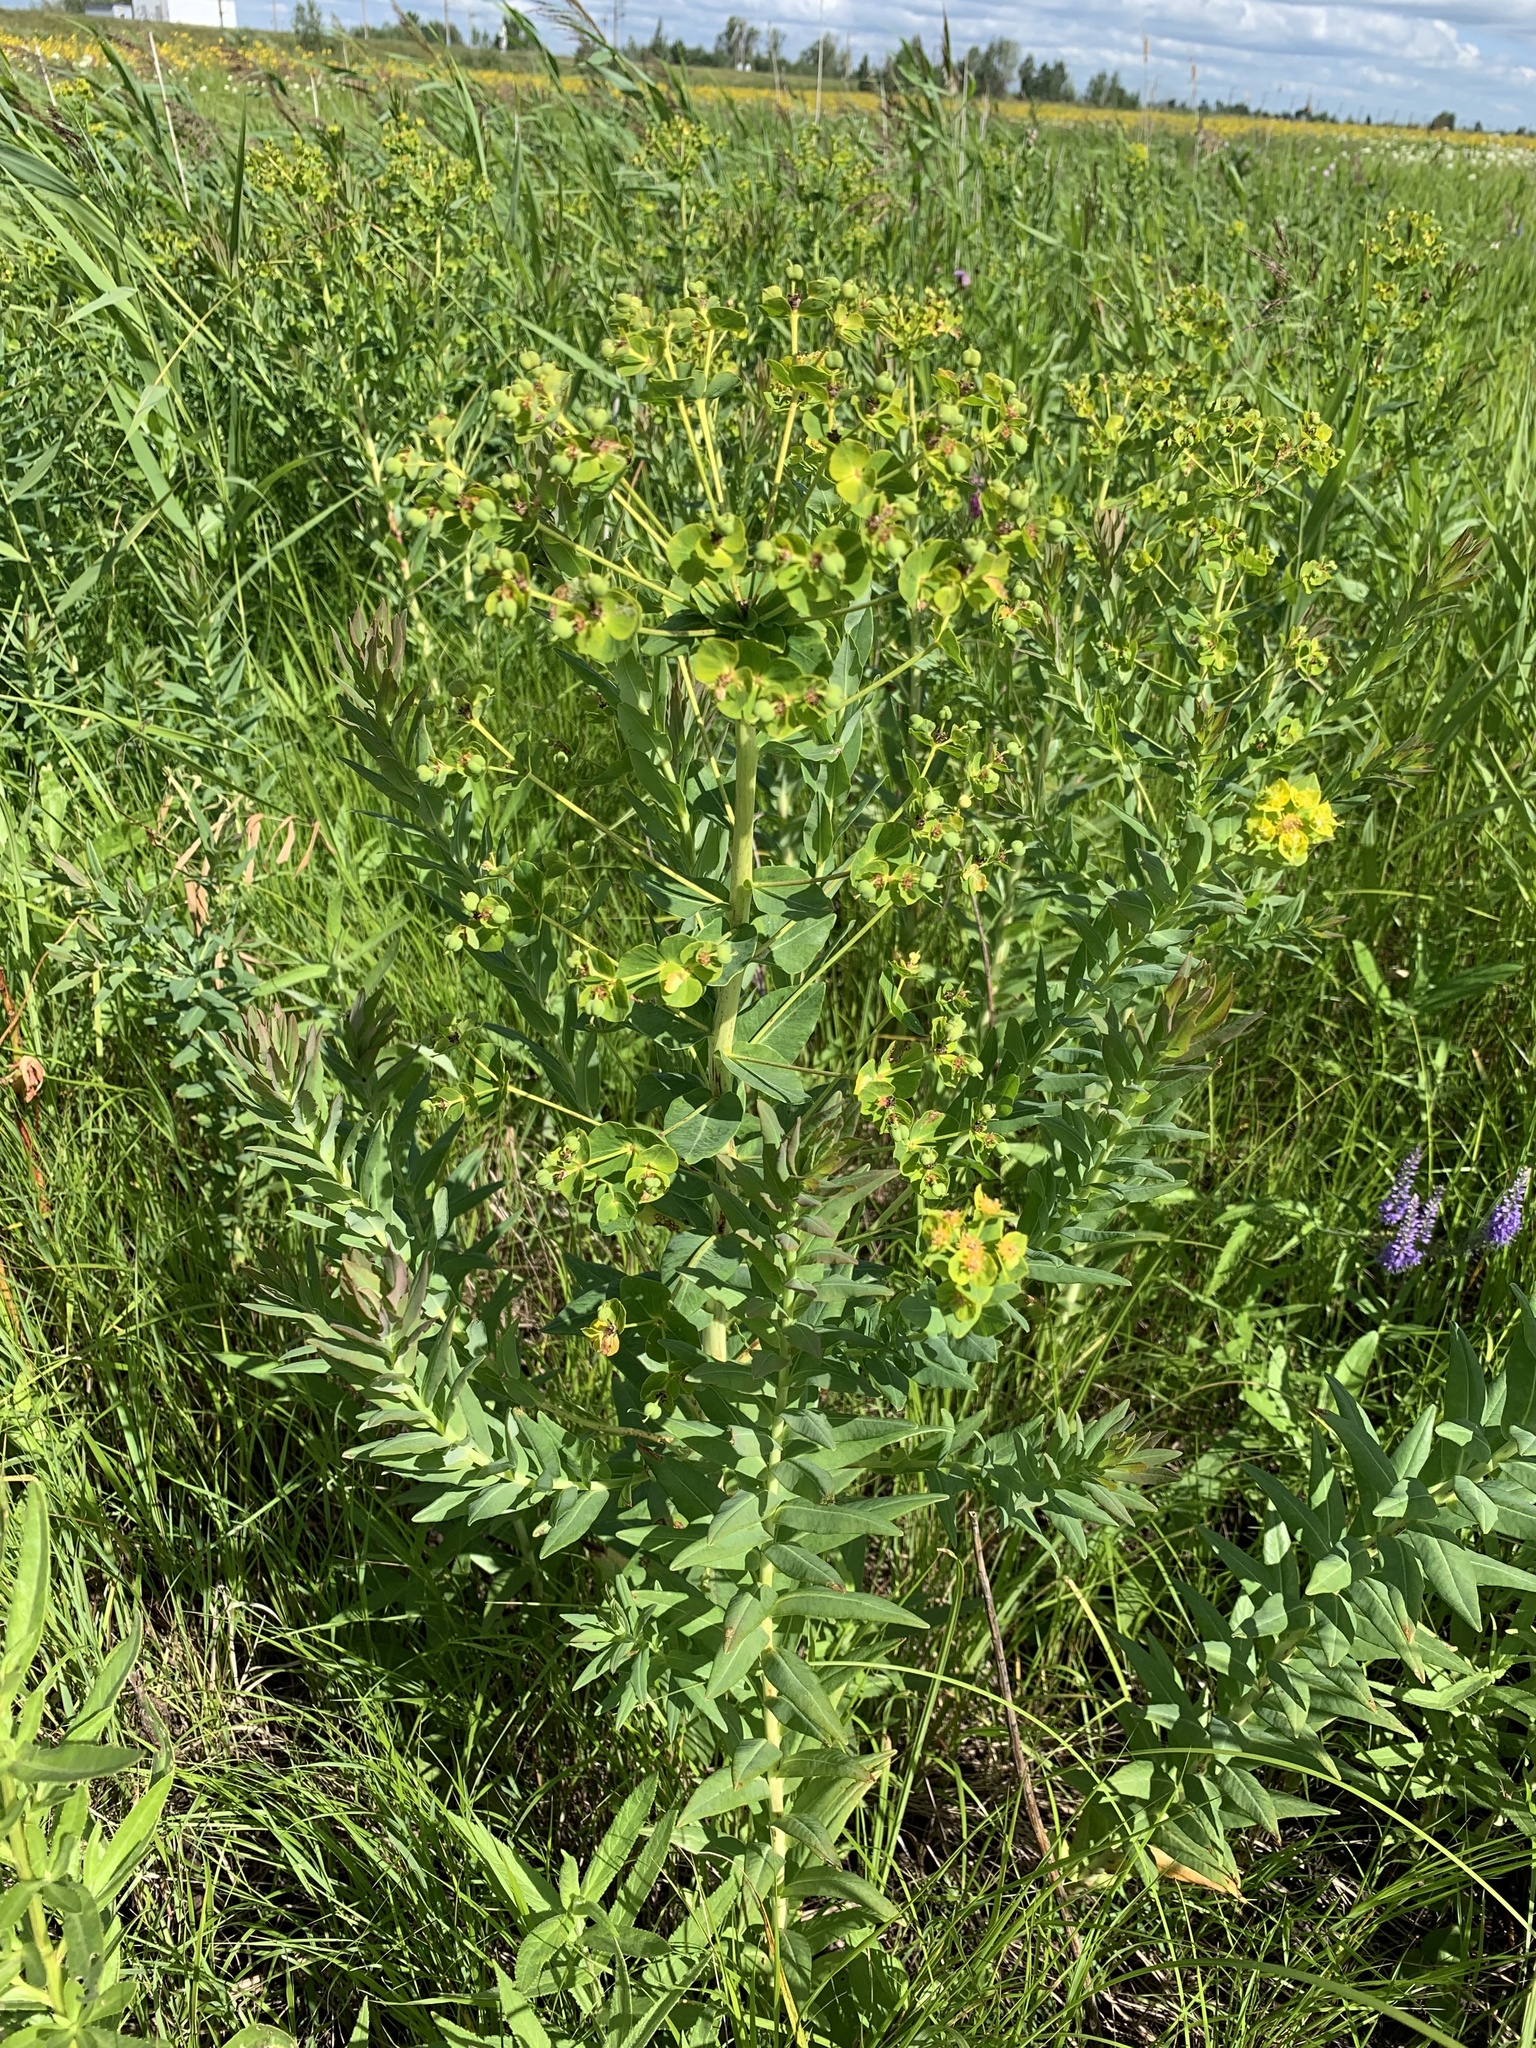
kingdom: Plantae
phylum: Tracheophyta
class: Magnoliopsida
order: Malpighiales
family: Euphorbiaceae
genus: Euphorbia
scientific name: Euphorbia lucida
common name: Shining spurge
